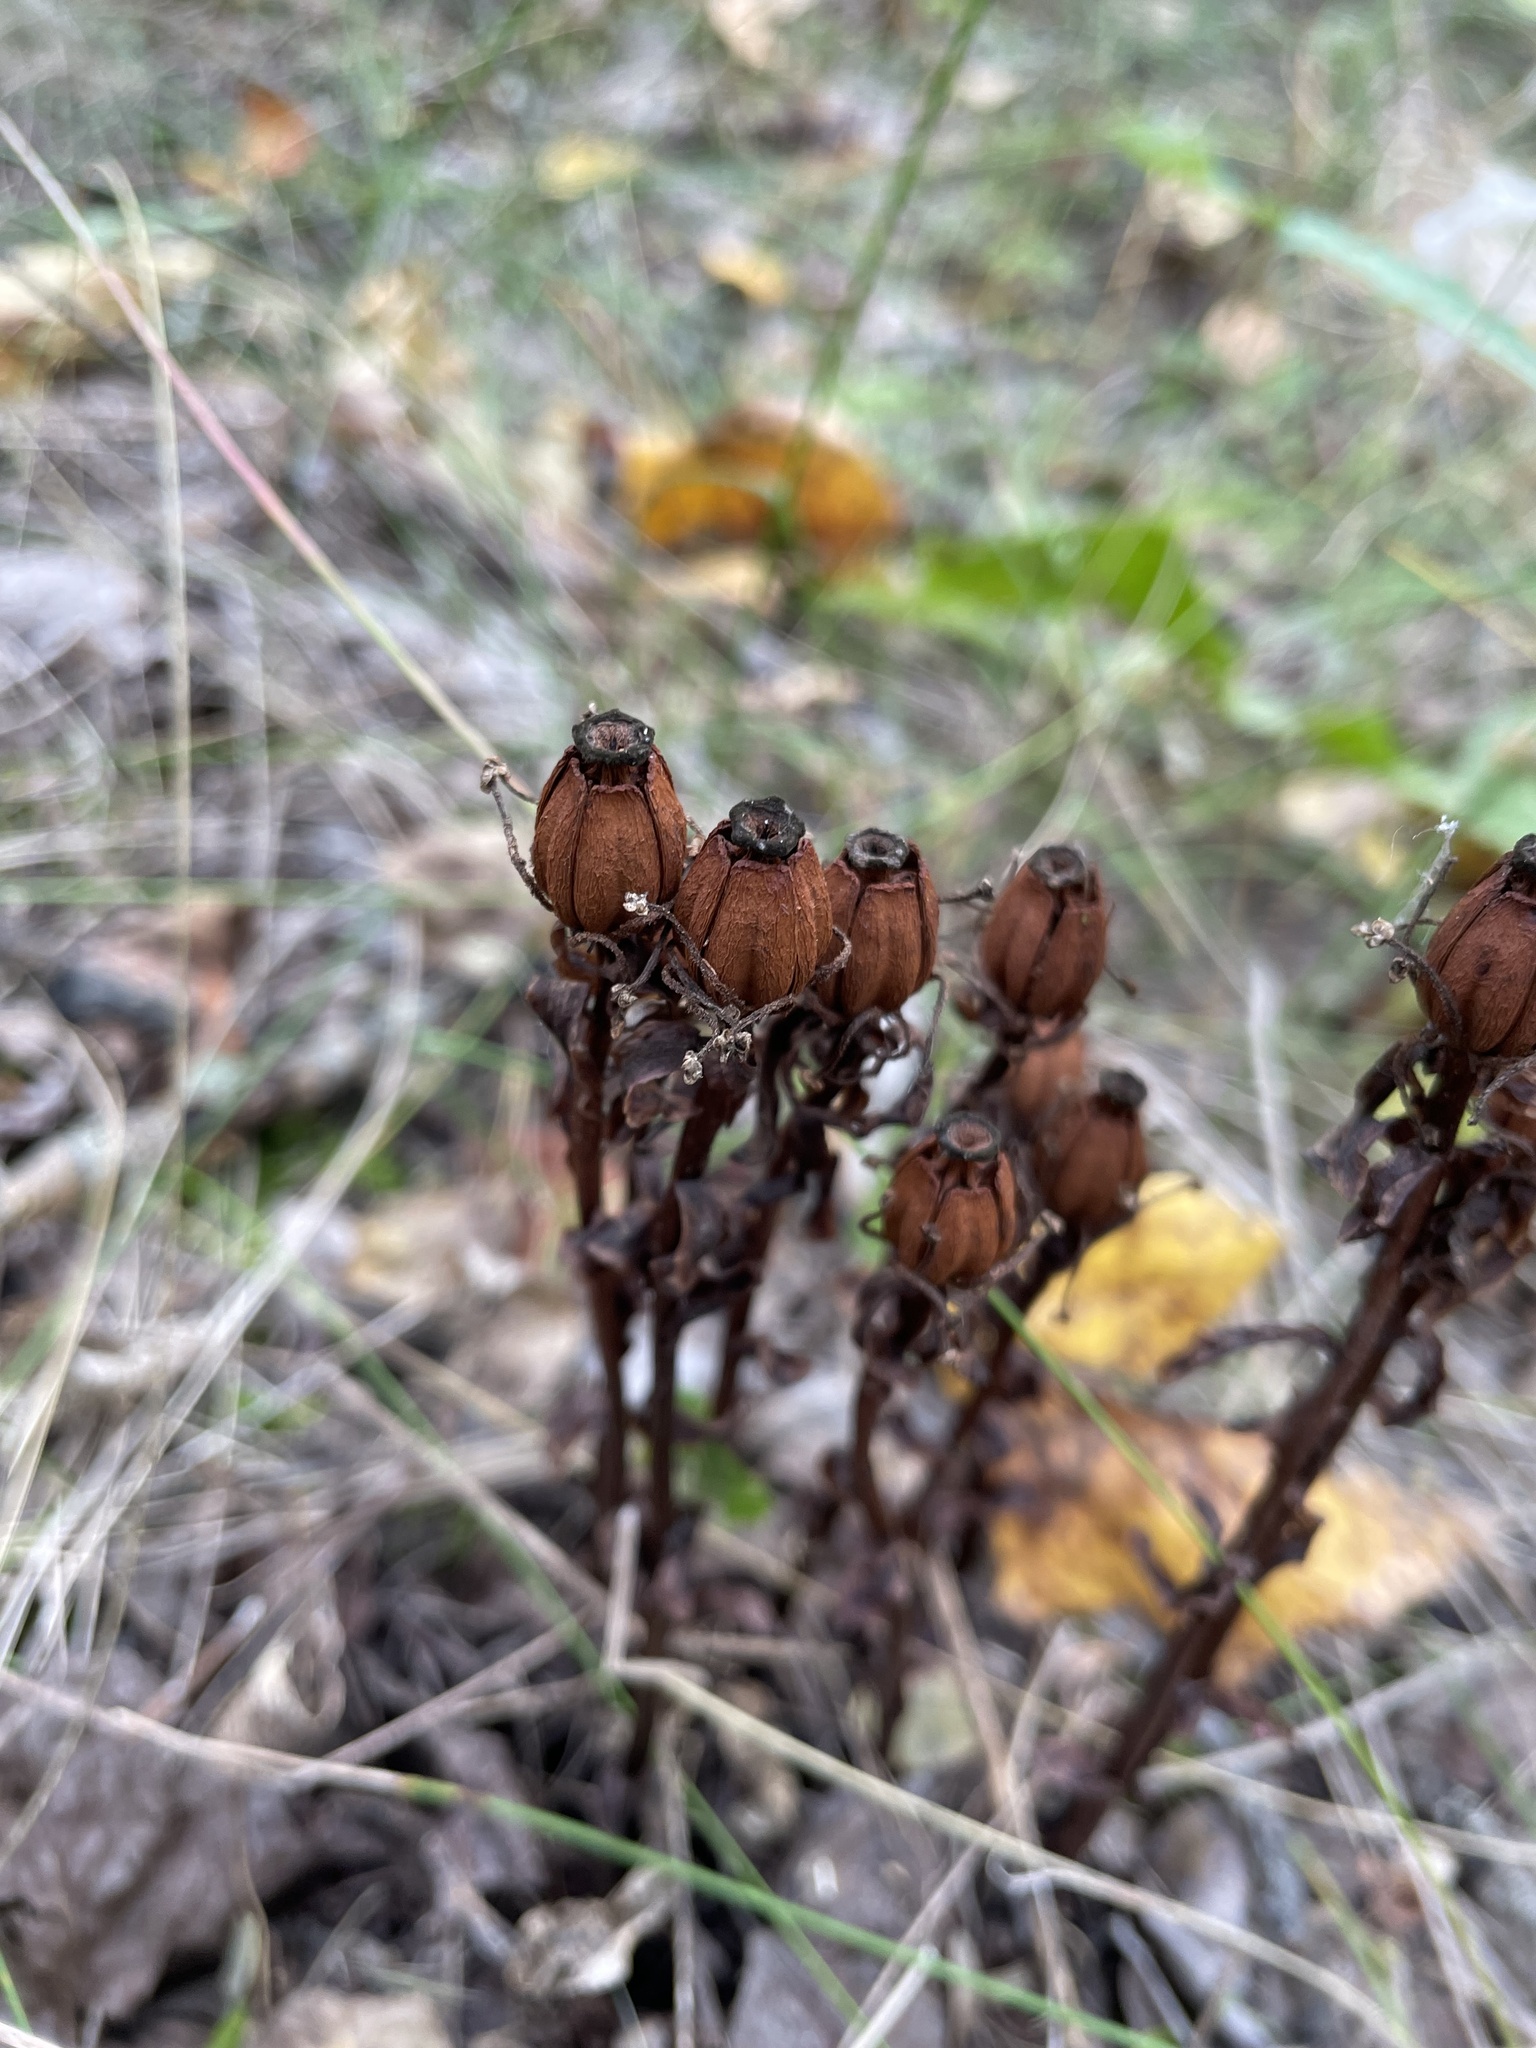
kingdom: Plantae
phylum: Tracheophyta
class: Magnoliopsida
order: Ericales
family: Ericaceae
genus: Monotropa
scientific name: Monotropa uniflora
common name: Convulsion root
